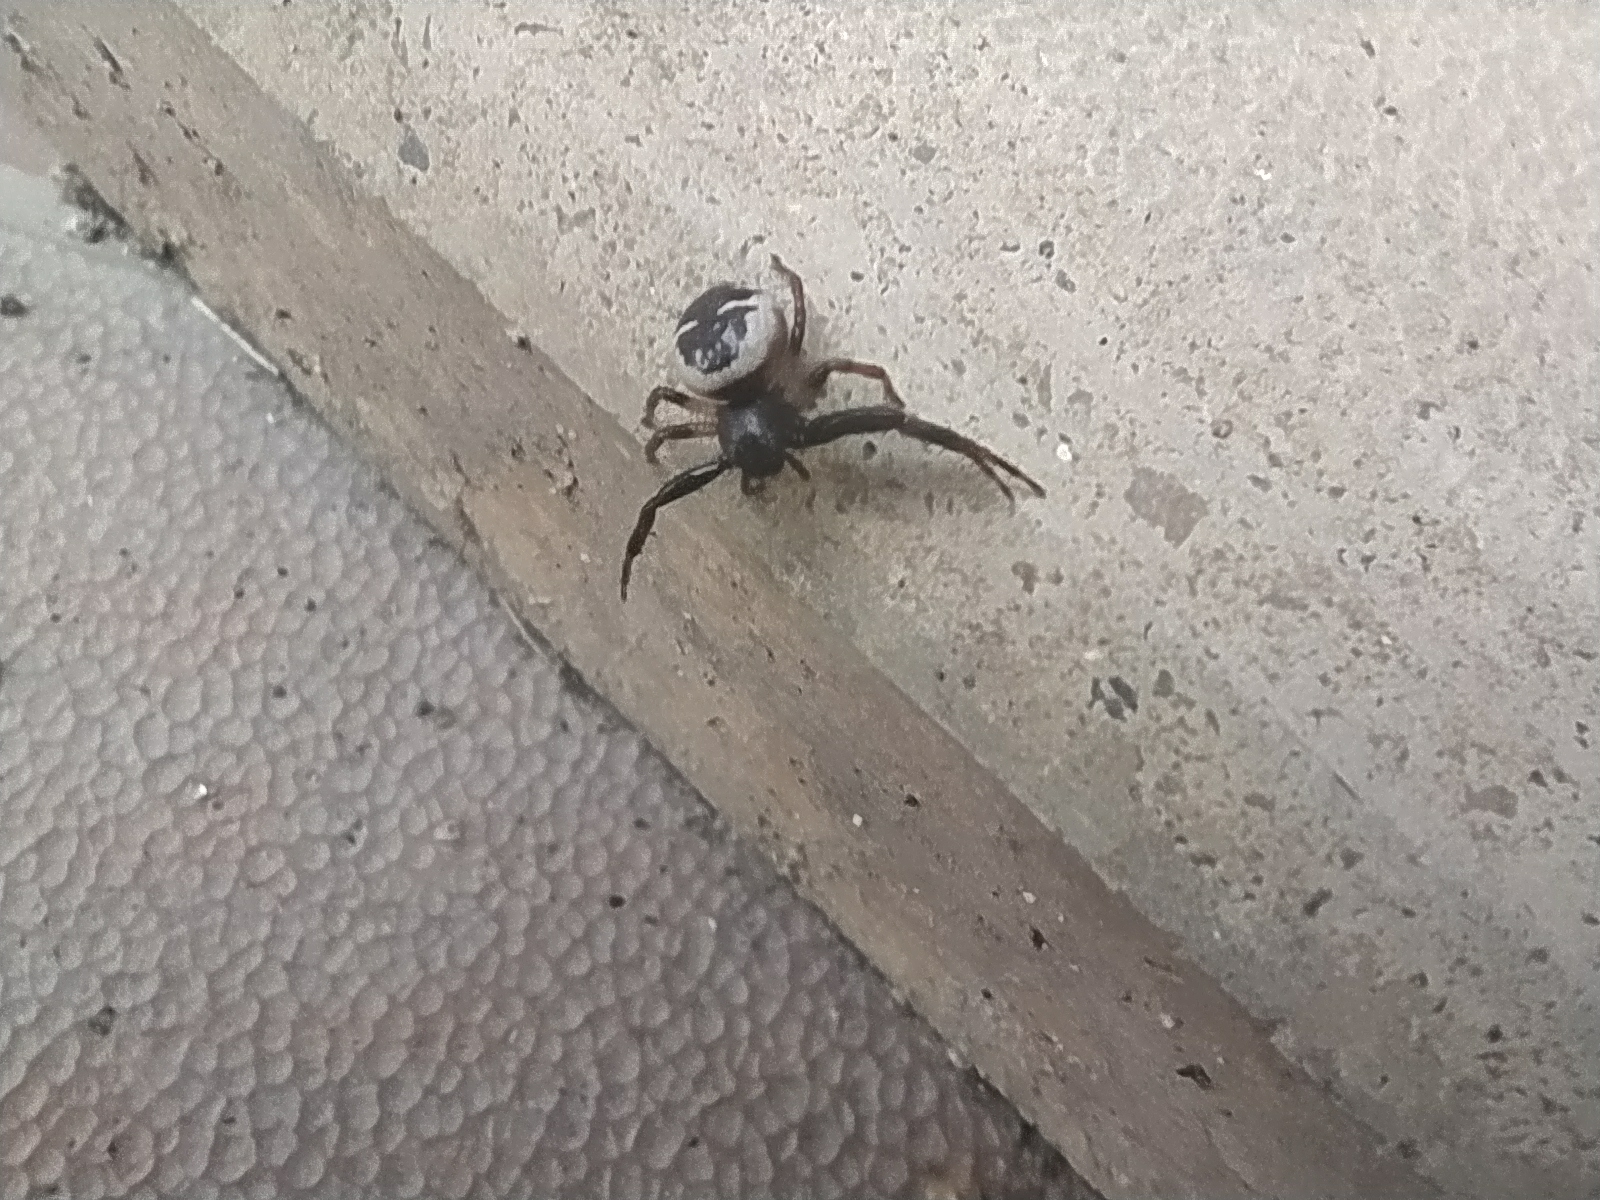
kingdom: Animalia
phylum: Arthropoda
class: Arachnida
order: Araneae
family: Thomisidae
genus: Synema
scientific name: Synema globosum
